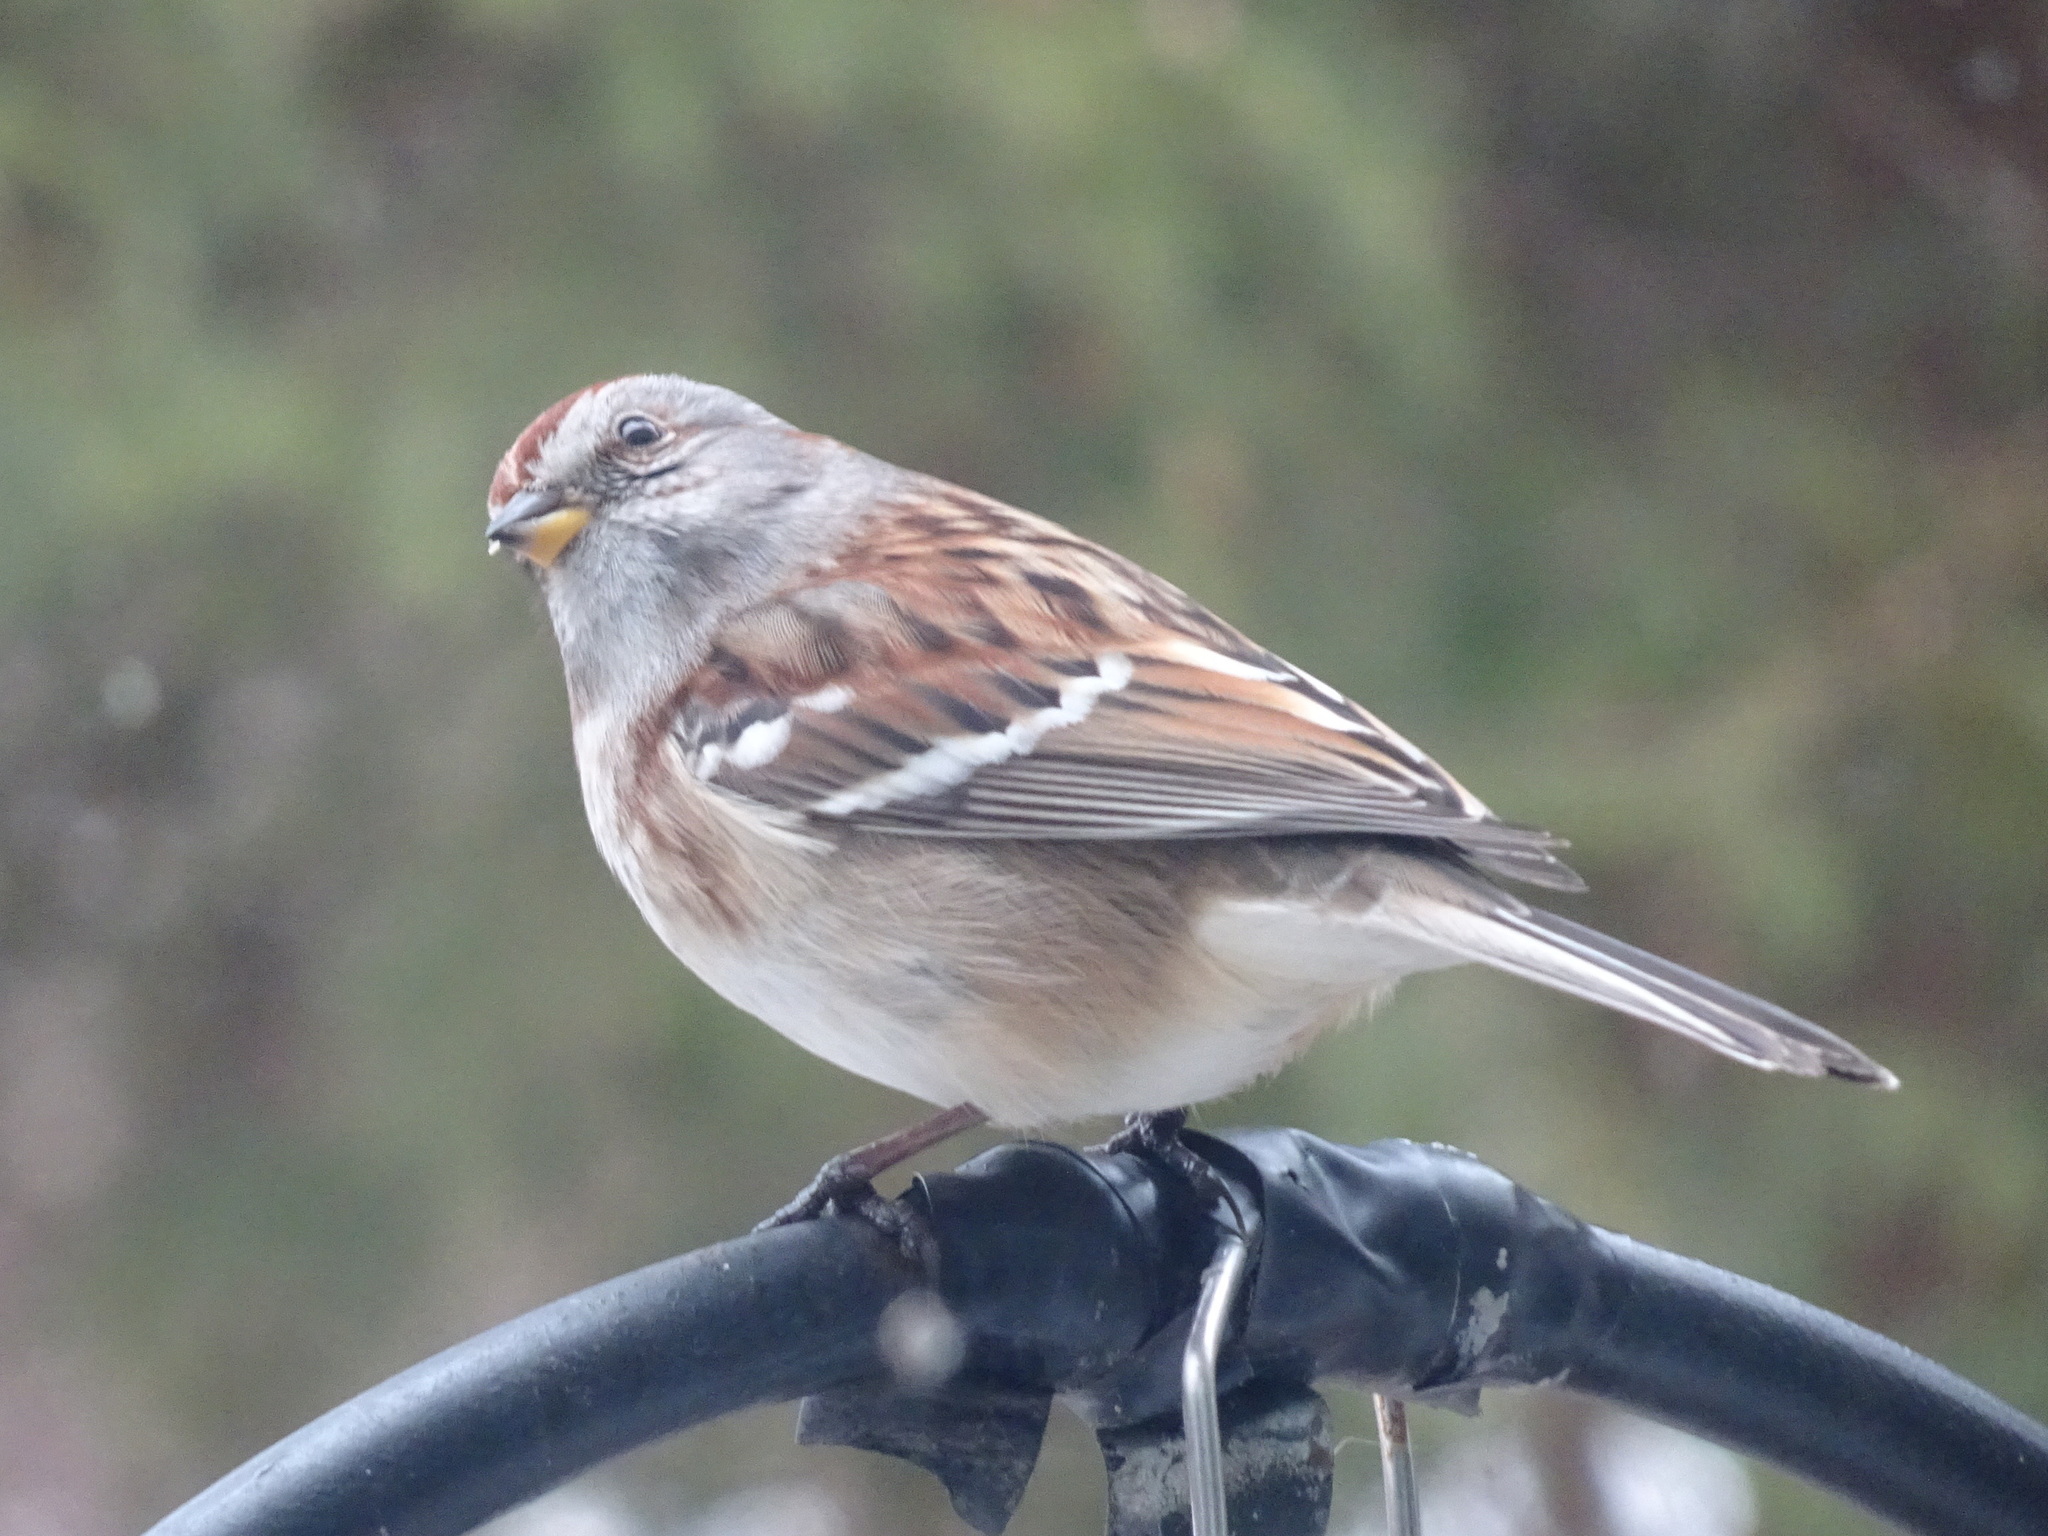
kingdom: Animalia
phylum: Chordata
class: Aves
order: Passeriformes
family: Passerellidae
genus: Spizelloides
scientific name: Spizelloides arborea
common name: American tree sparrow
